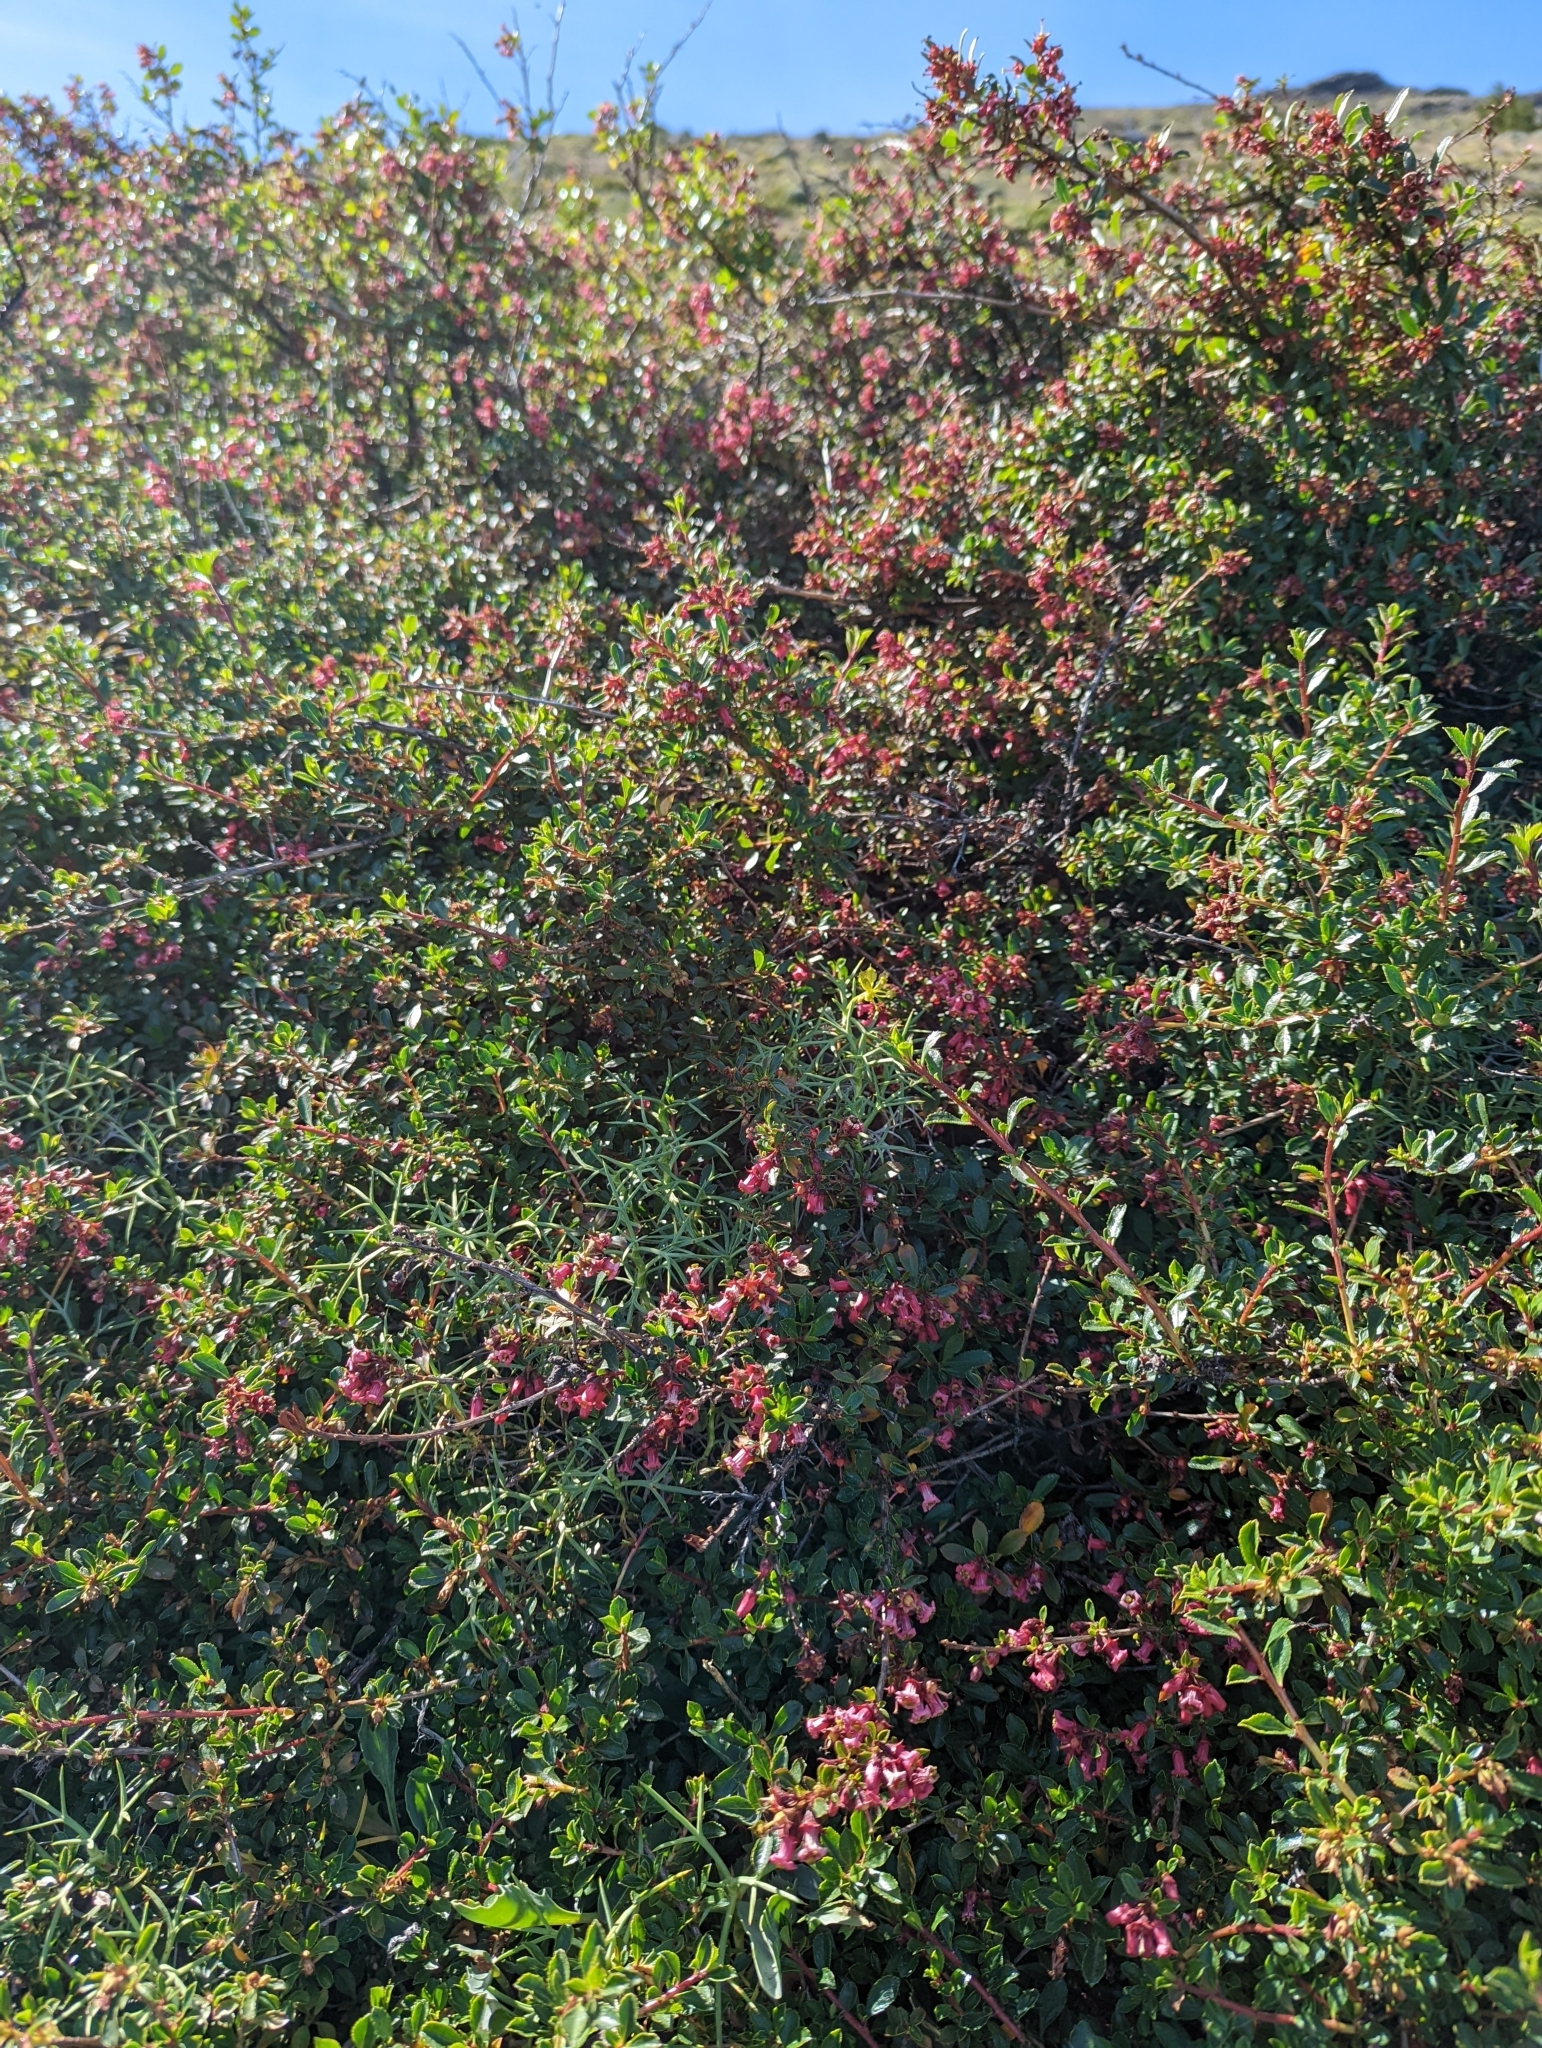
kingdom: Plantae
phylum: Tracheophyta
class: Magnoliopsida
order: Escalloniales
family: Escalloniaceae
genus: Escallonia
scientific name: Escallonia rubra
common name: Redclaws
